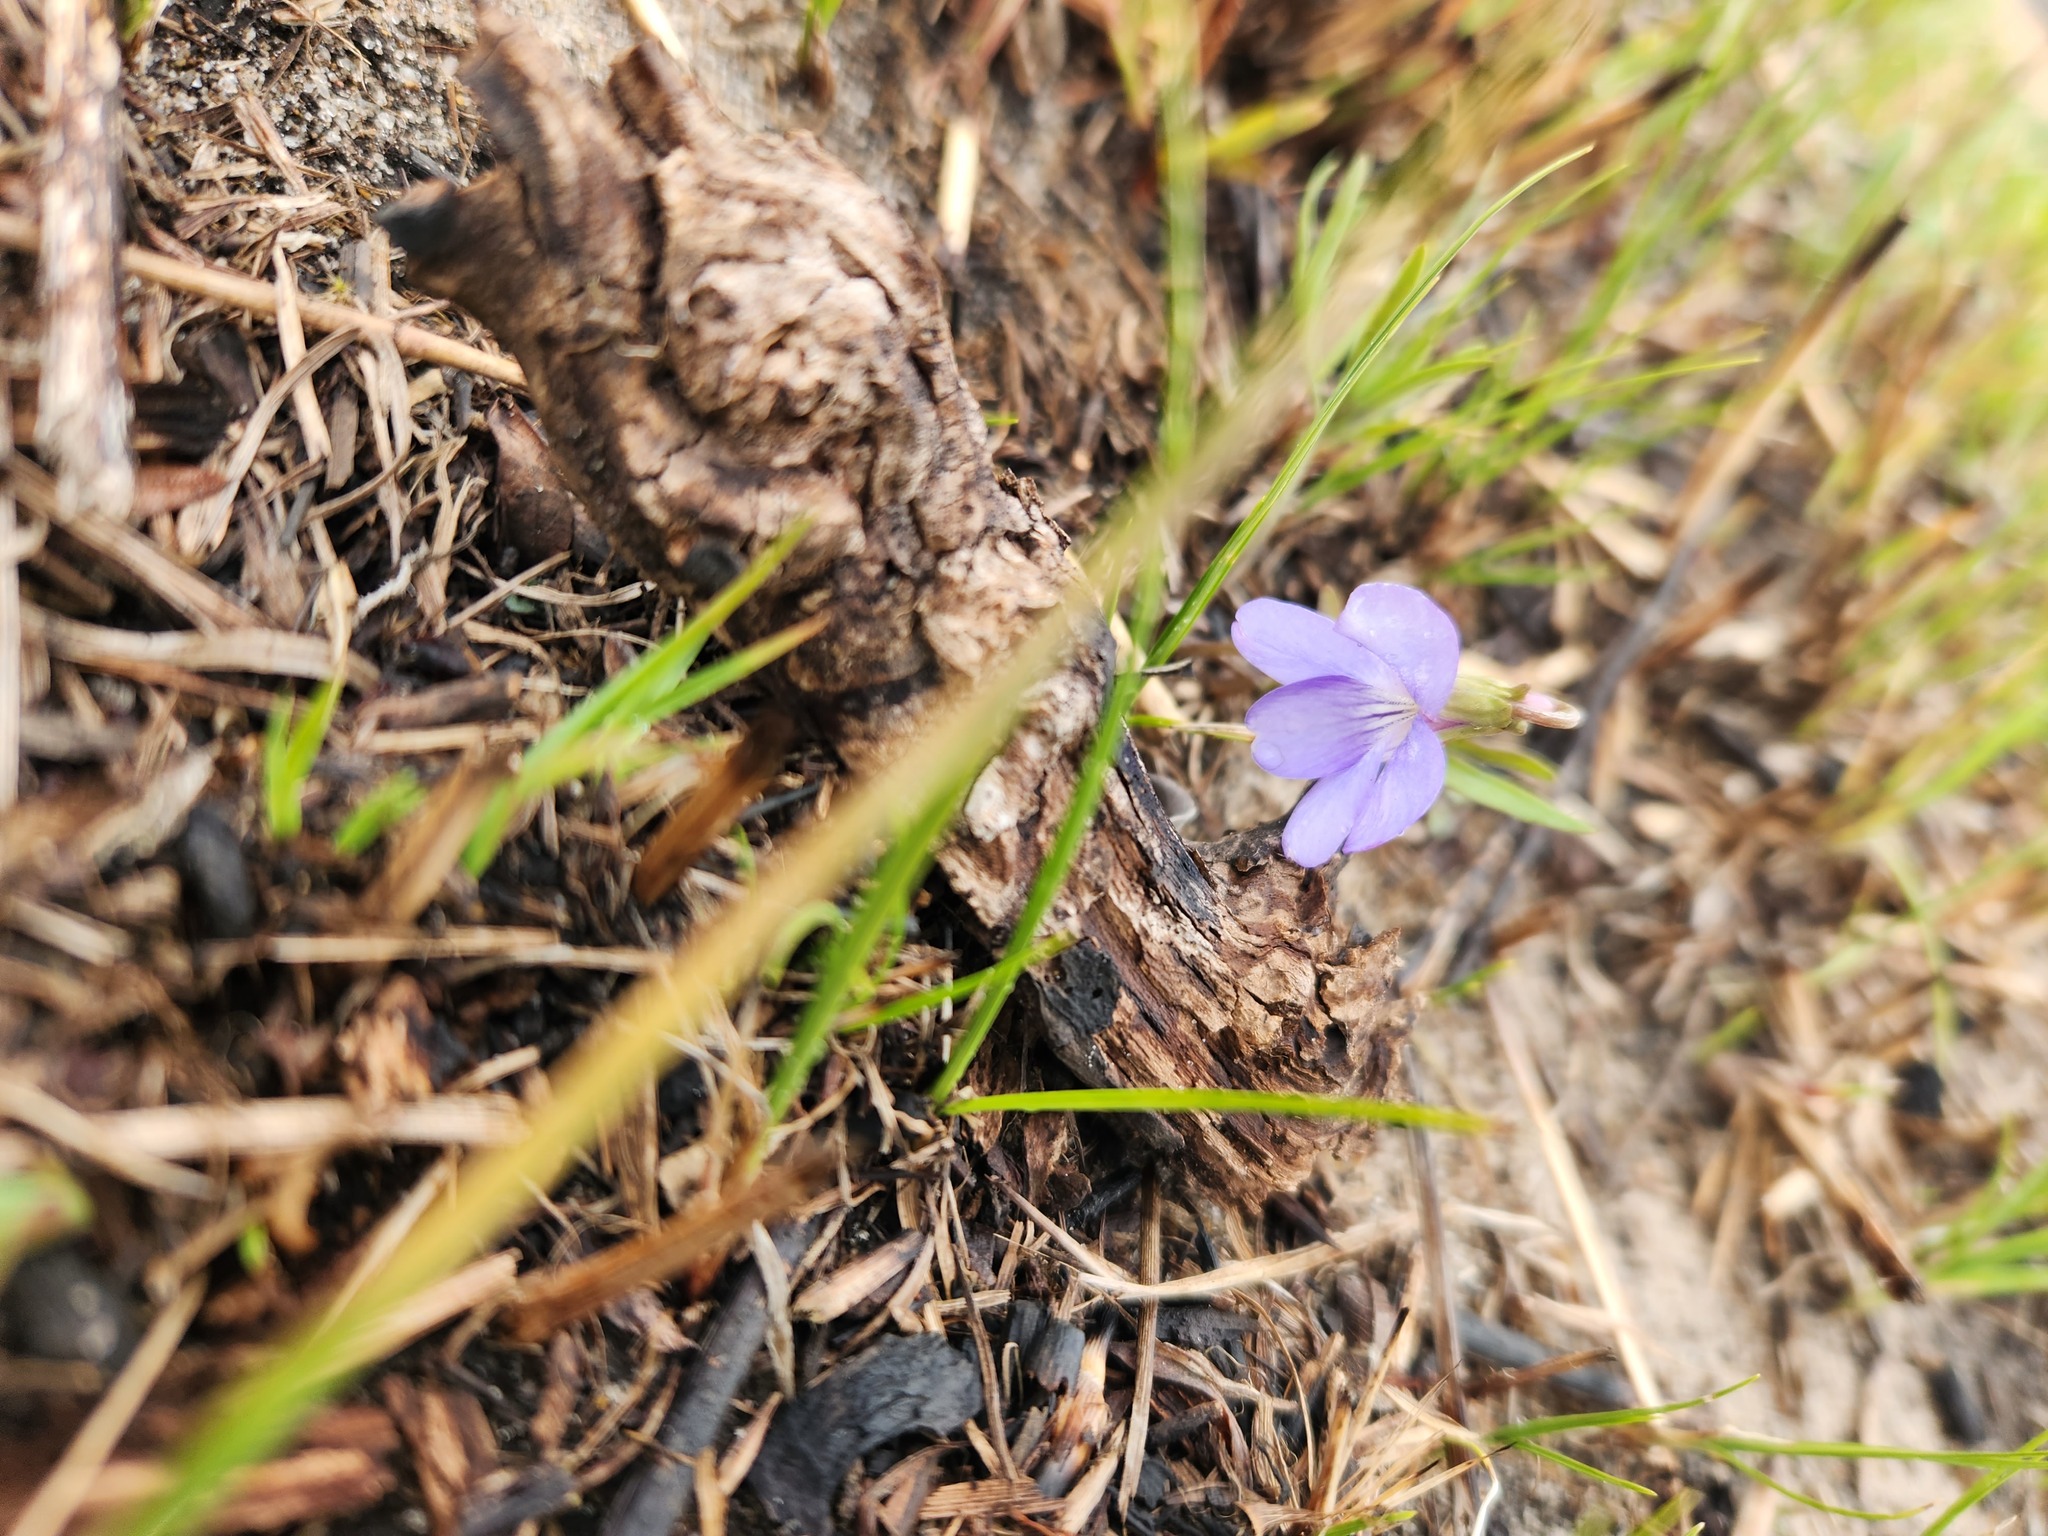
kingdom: Plantae
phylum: Tracheophyta
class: Magnoliopsida
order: Malpighiales
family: Violaceae
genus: Viola
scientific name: Viola pedatifida
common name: Prairie violet
